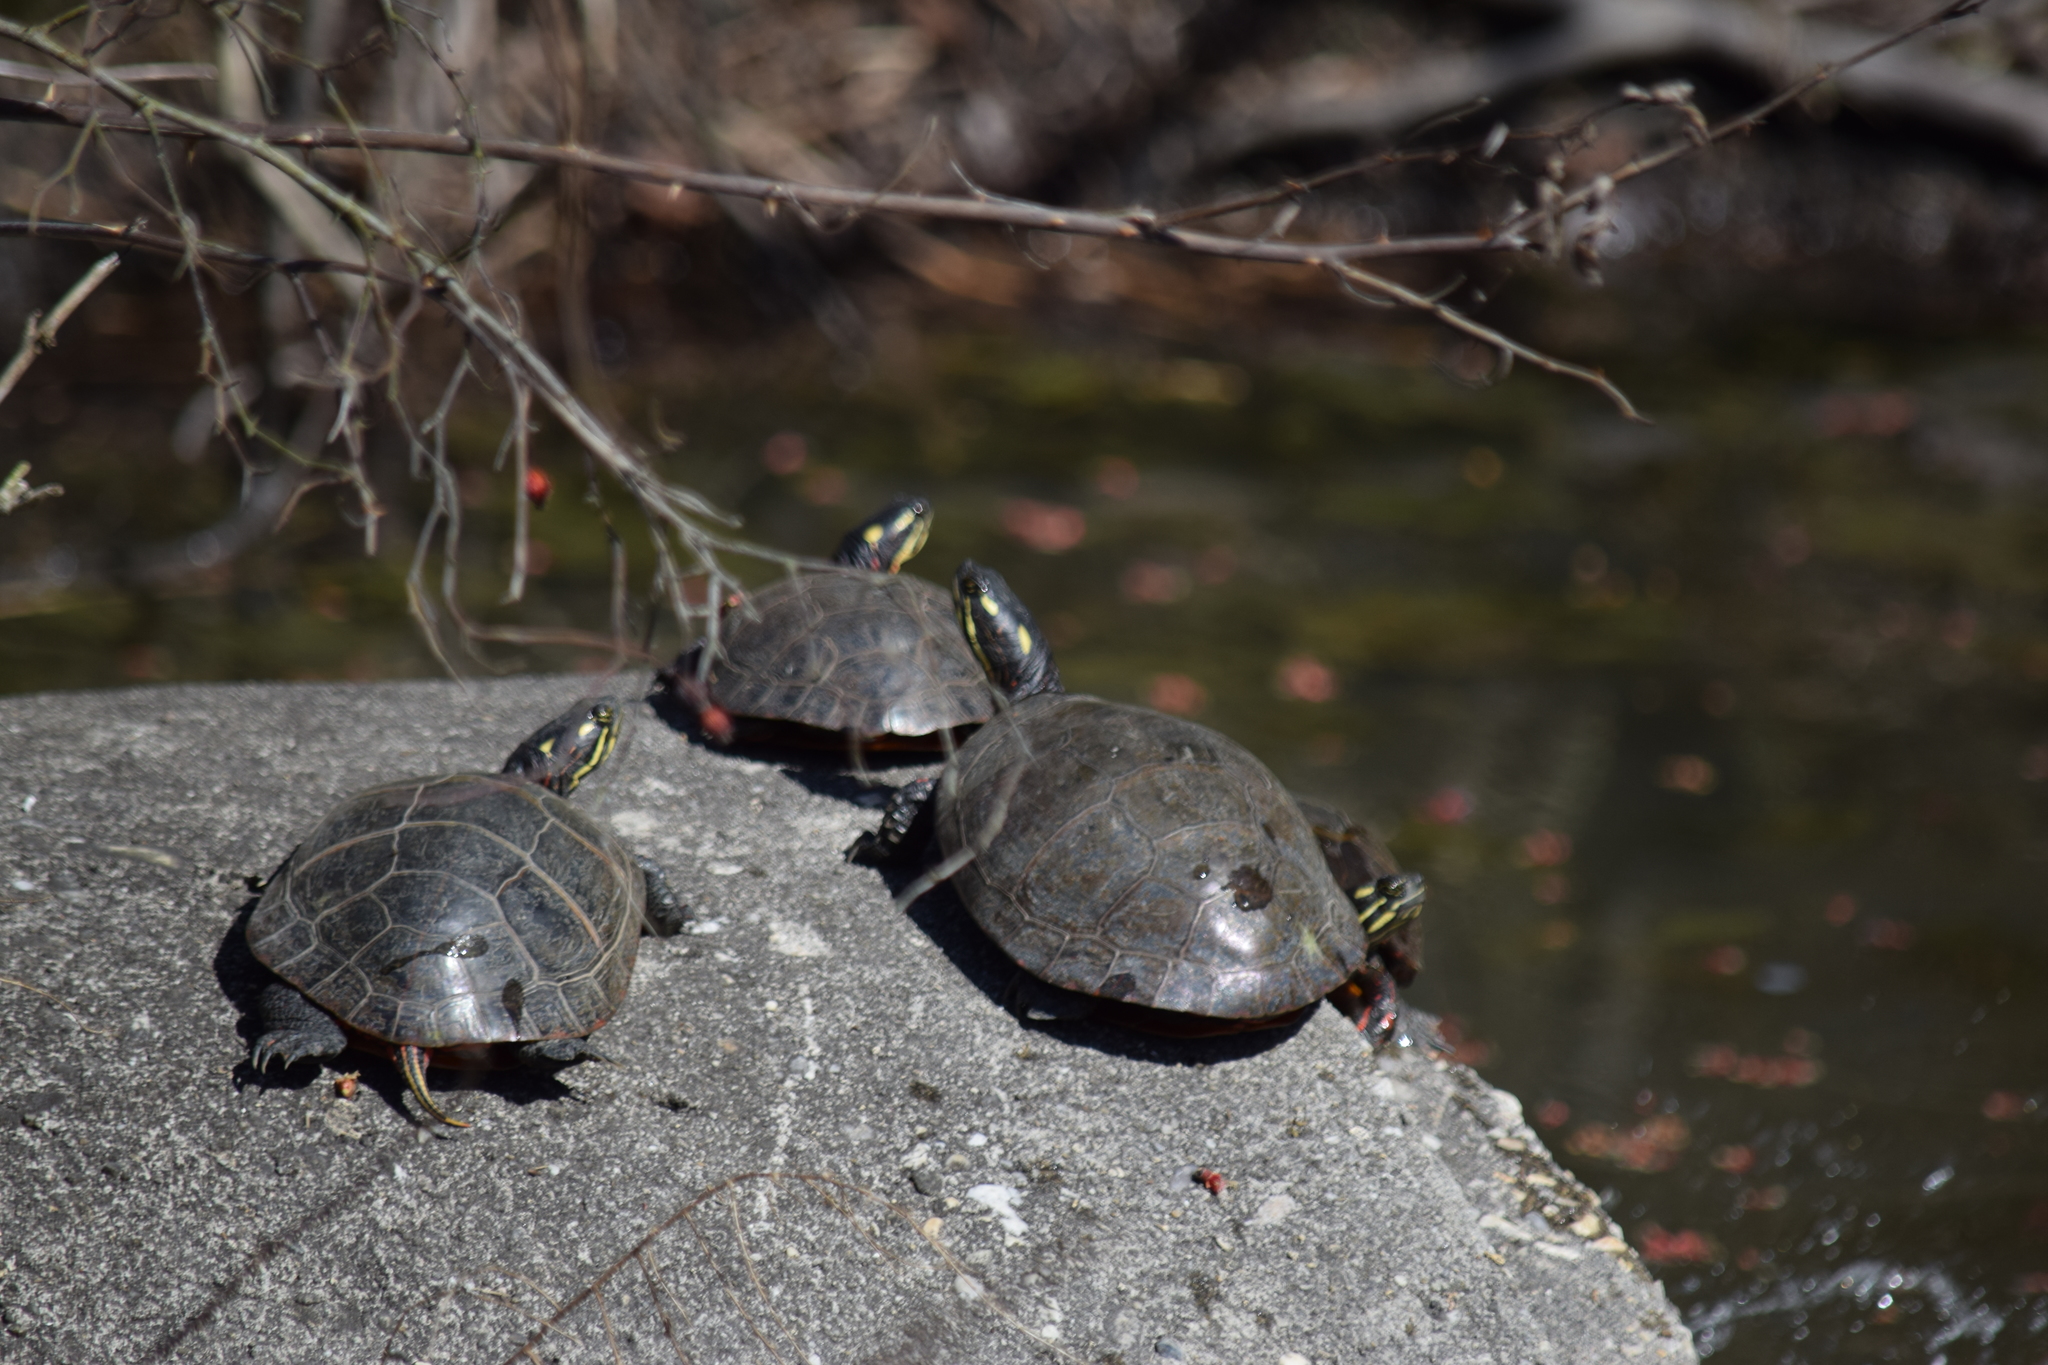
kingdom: Animalia
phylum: Chordata
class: Testudines
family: Emydidae
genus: Chrysemys
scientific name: Chrysemys picta
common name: Painted turtle
